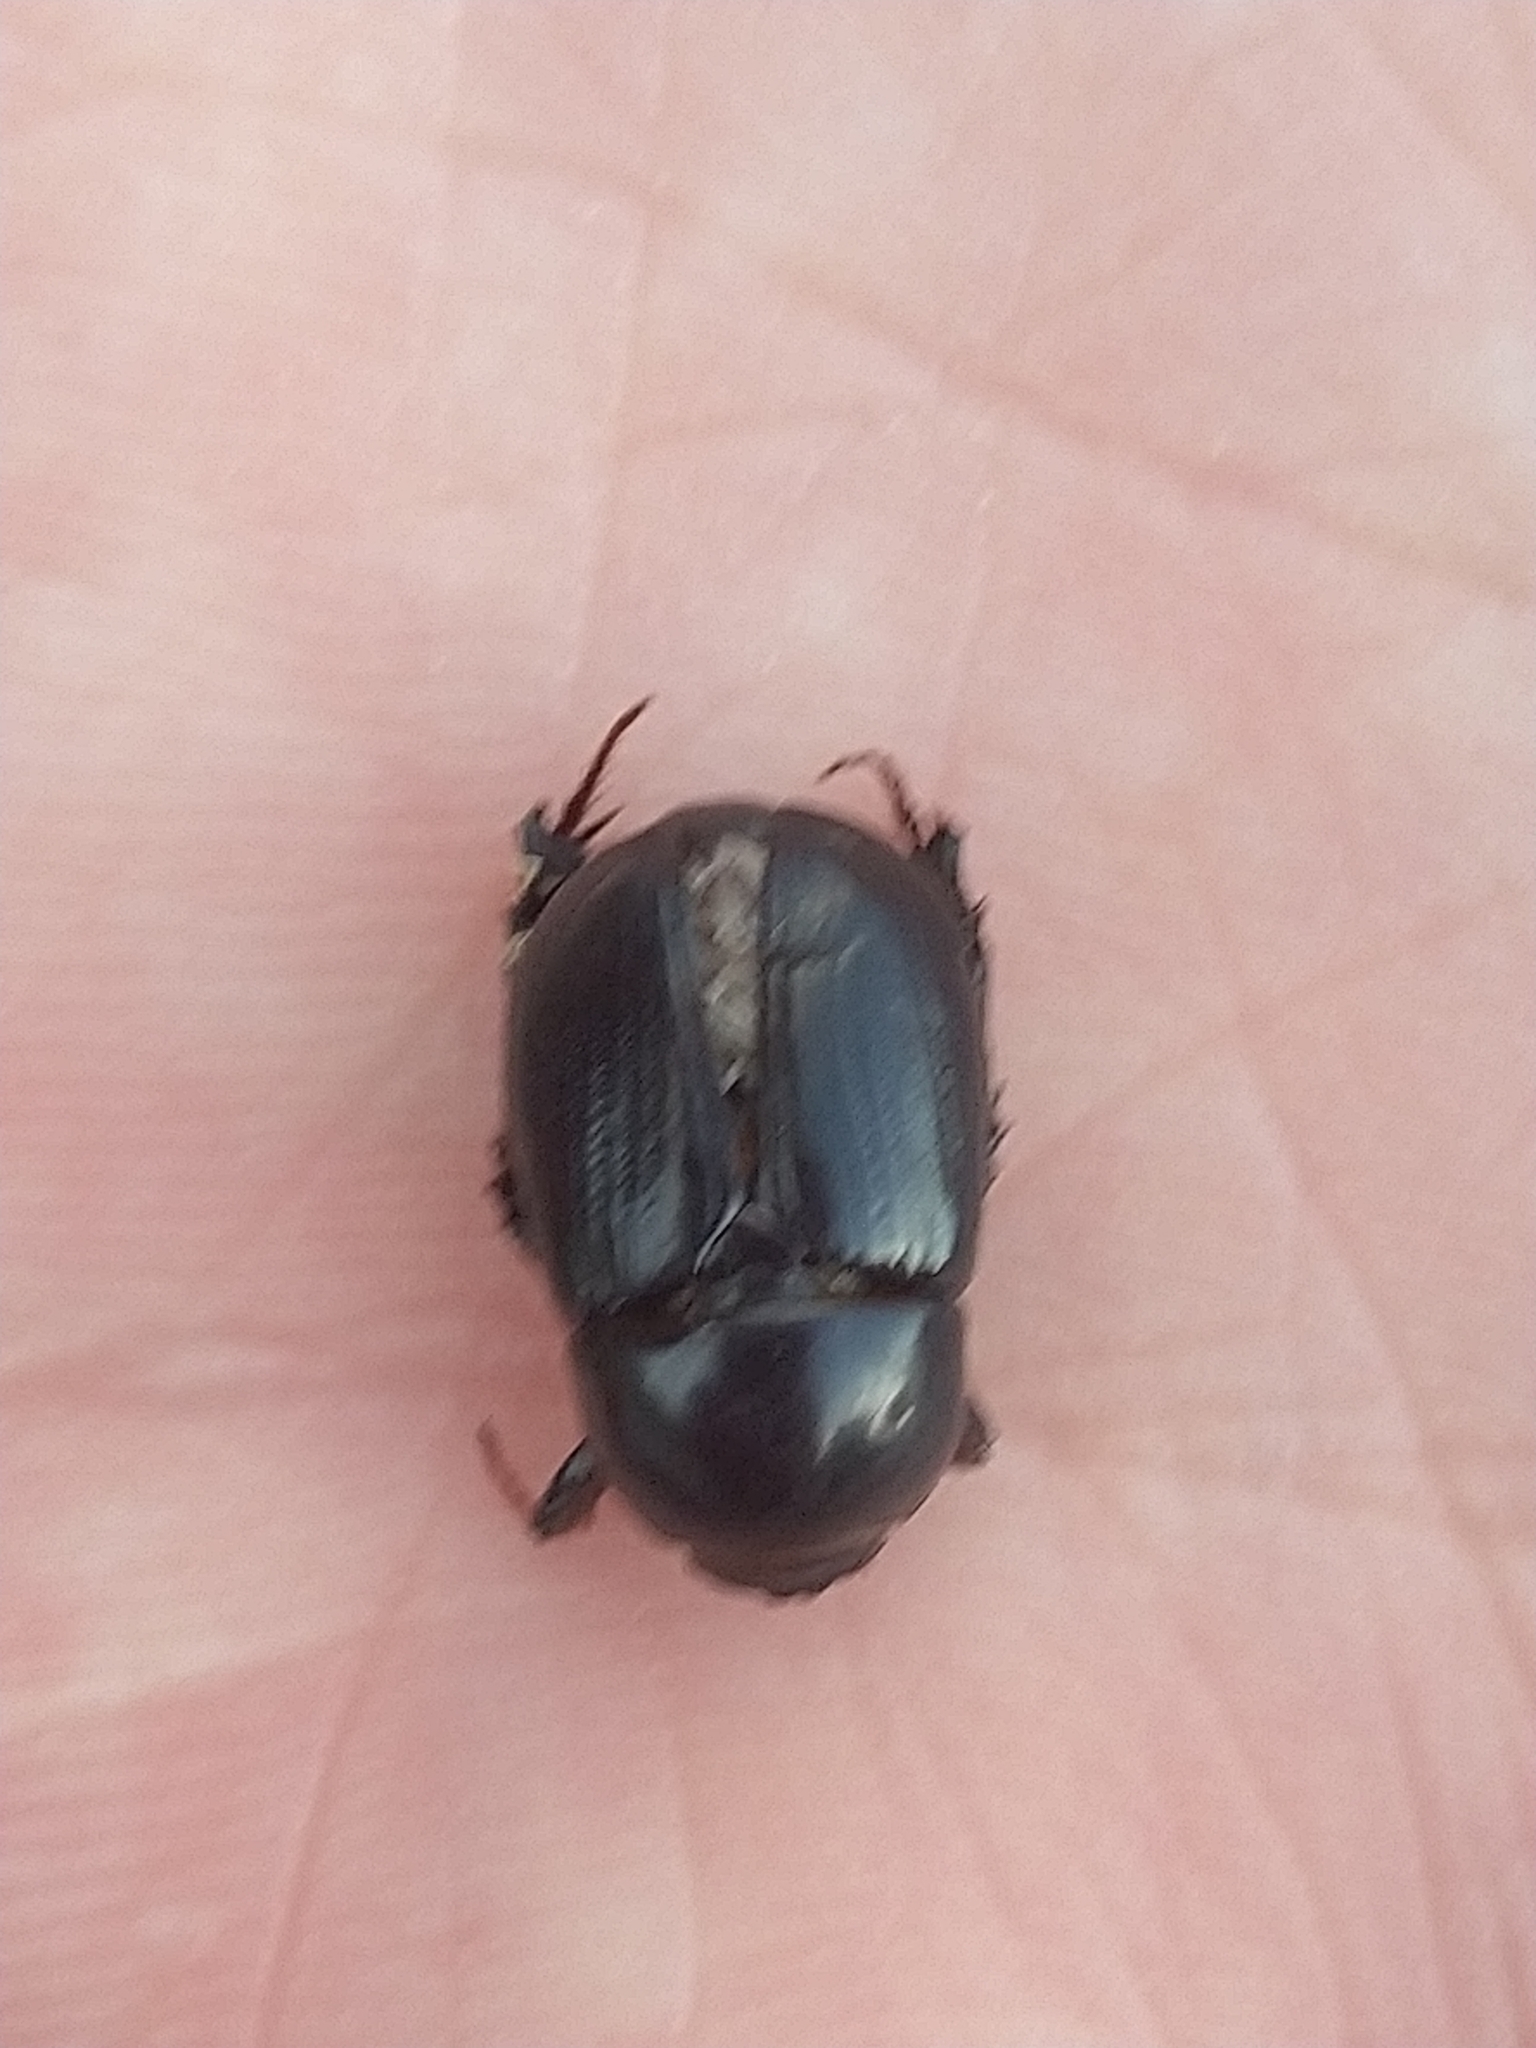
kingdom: Animalia
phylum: Arthropoda
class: Insecta
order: Coleoptera
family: Scarabaeidae
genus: Heteronychus
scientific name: Heteronychus arator
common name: African black beetle
